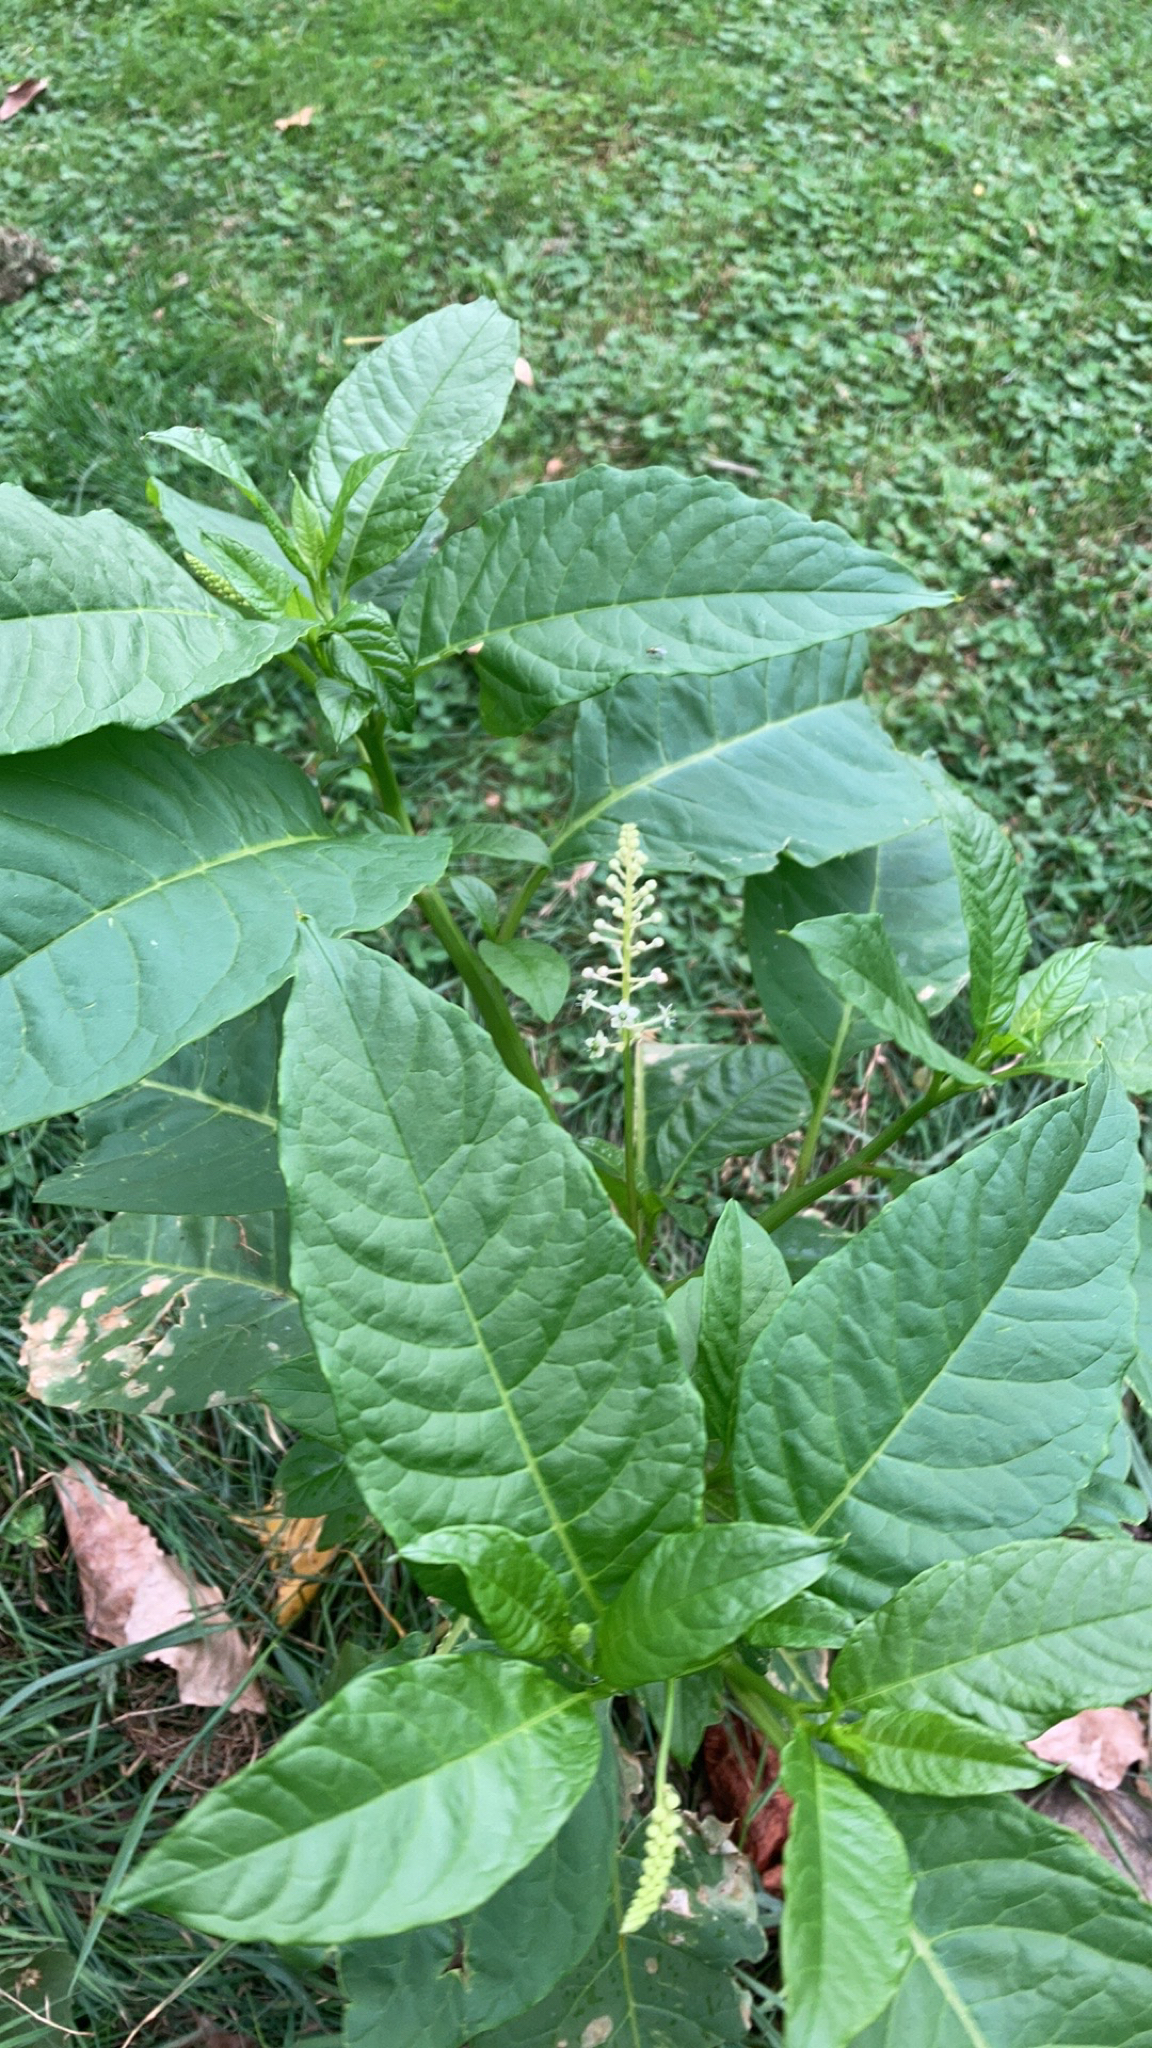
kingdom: Plantae
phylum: Tracheophyta
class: Magnoliopsida
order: Caryophyllales
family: Phytolaccaceae
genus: Phytolacca
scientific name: Phytolacca americana
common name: American pokeweed
